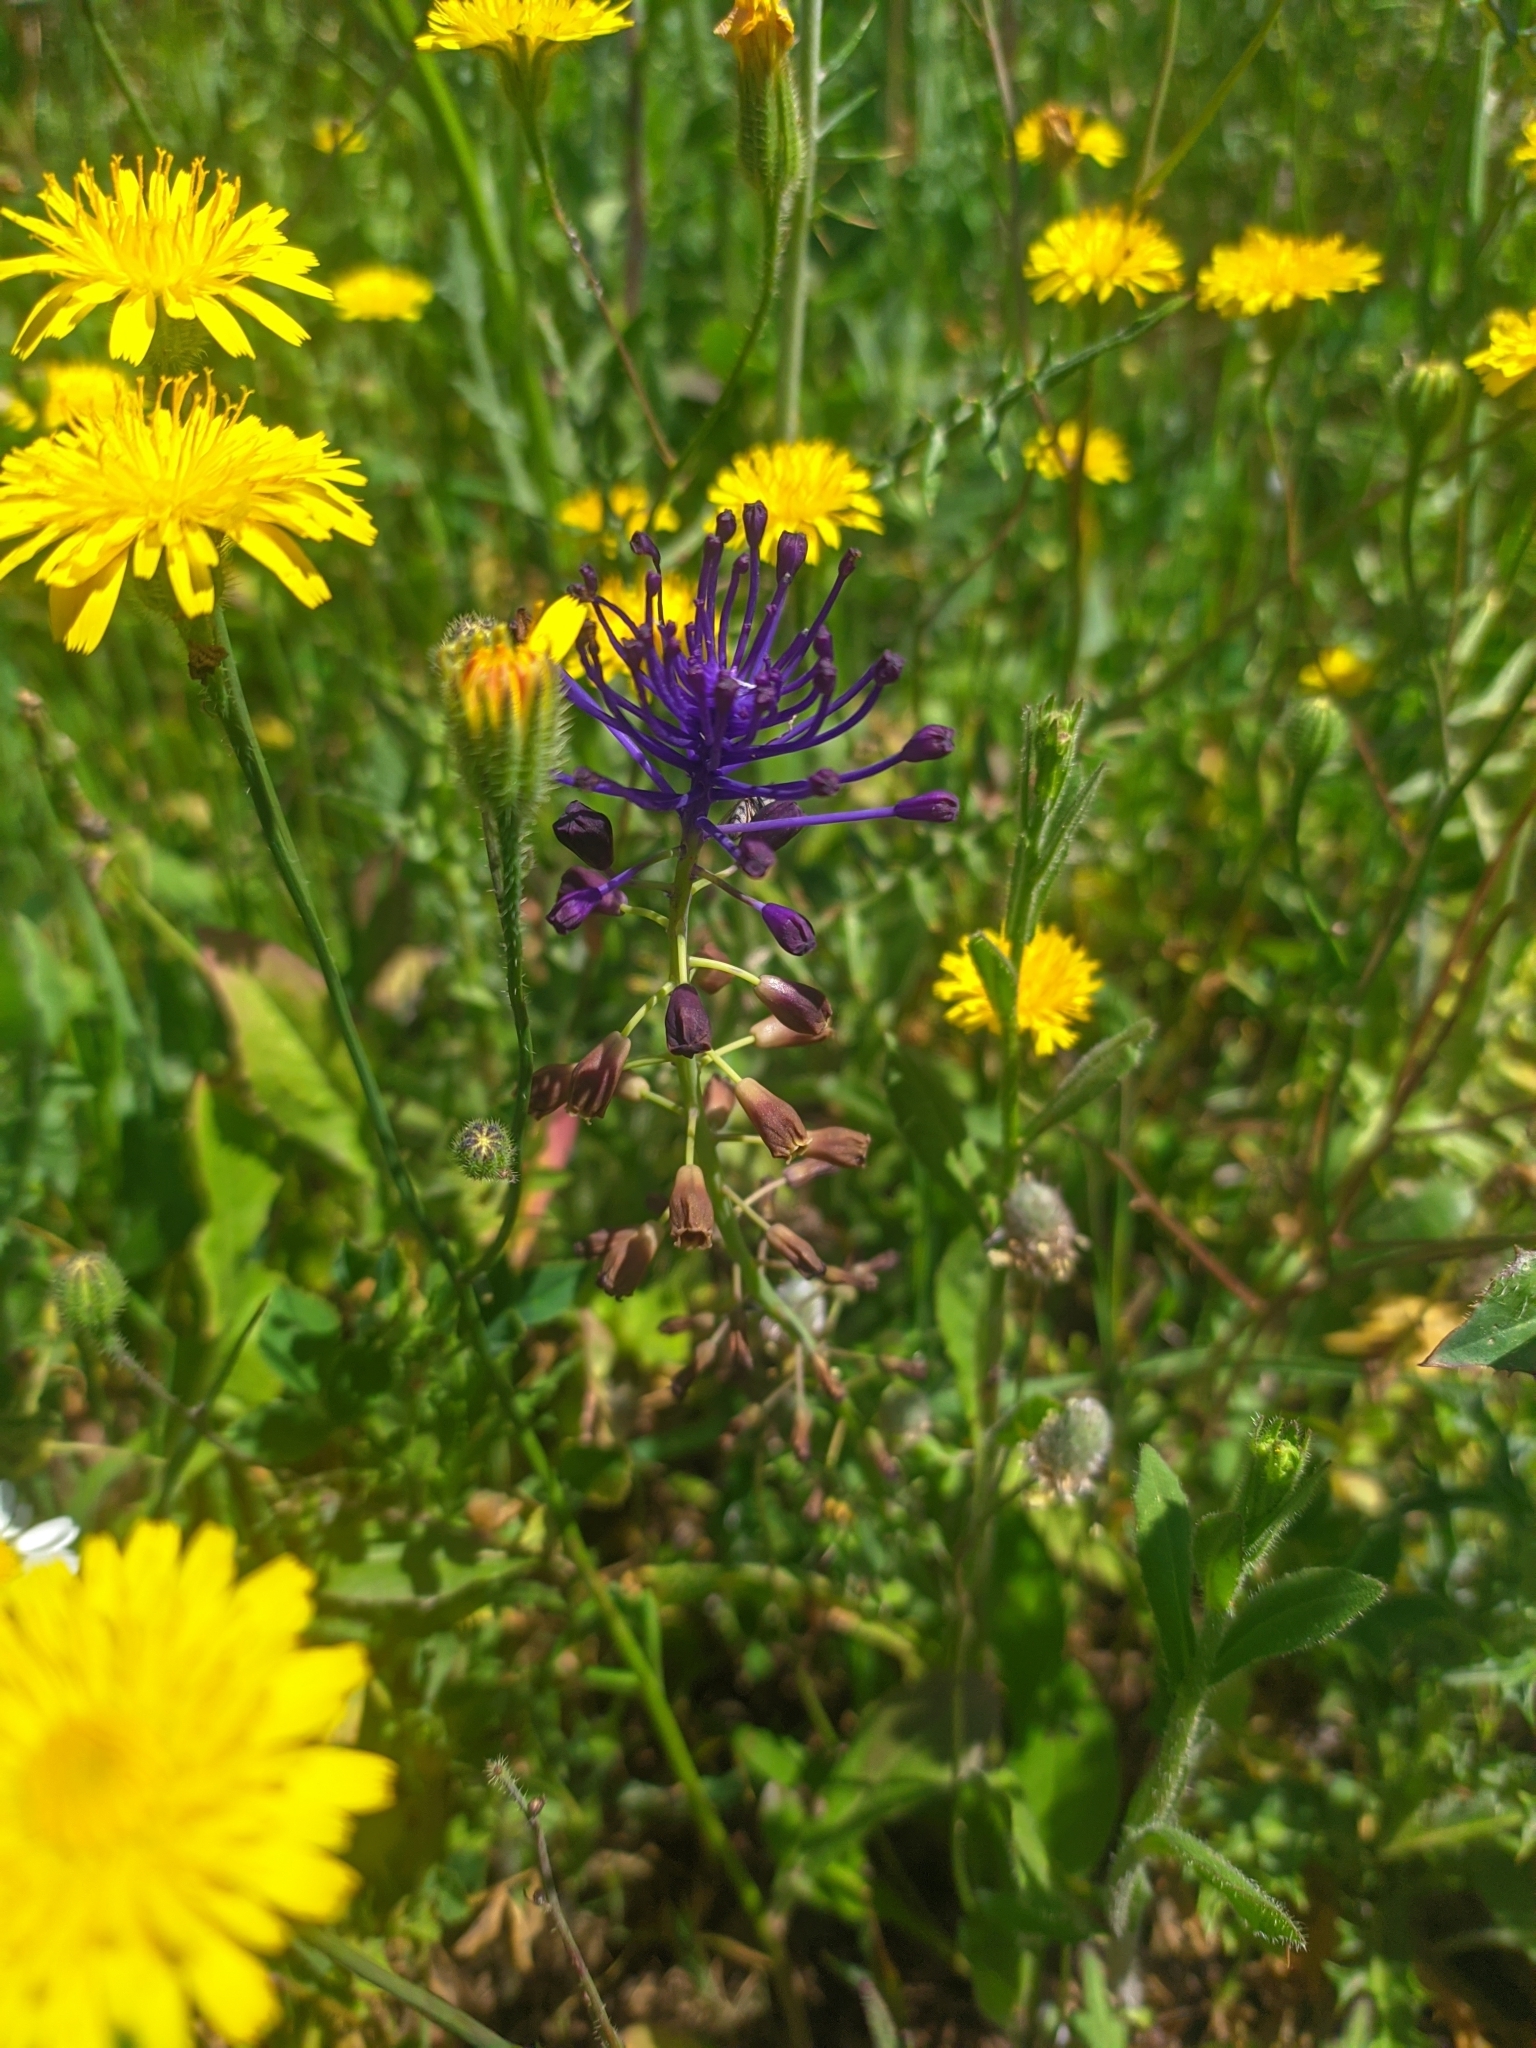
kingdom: Plantae
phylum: Tracheophyta
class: Liliopsida
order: Asparagales
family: Asparagaceae
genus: Muscari
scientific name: Muscari comosum
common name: Tassel hyacinth
